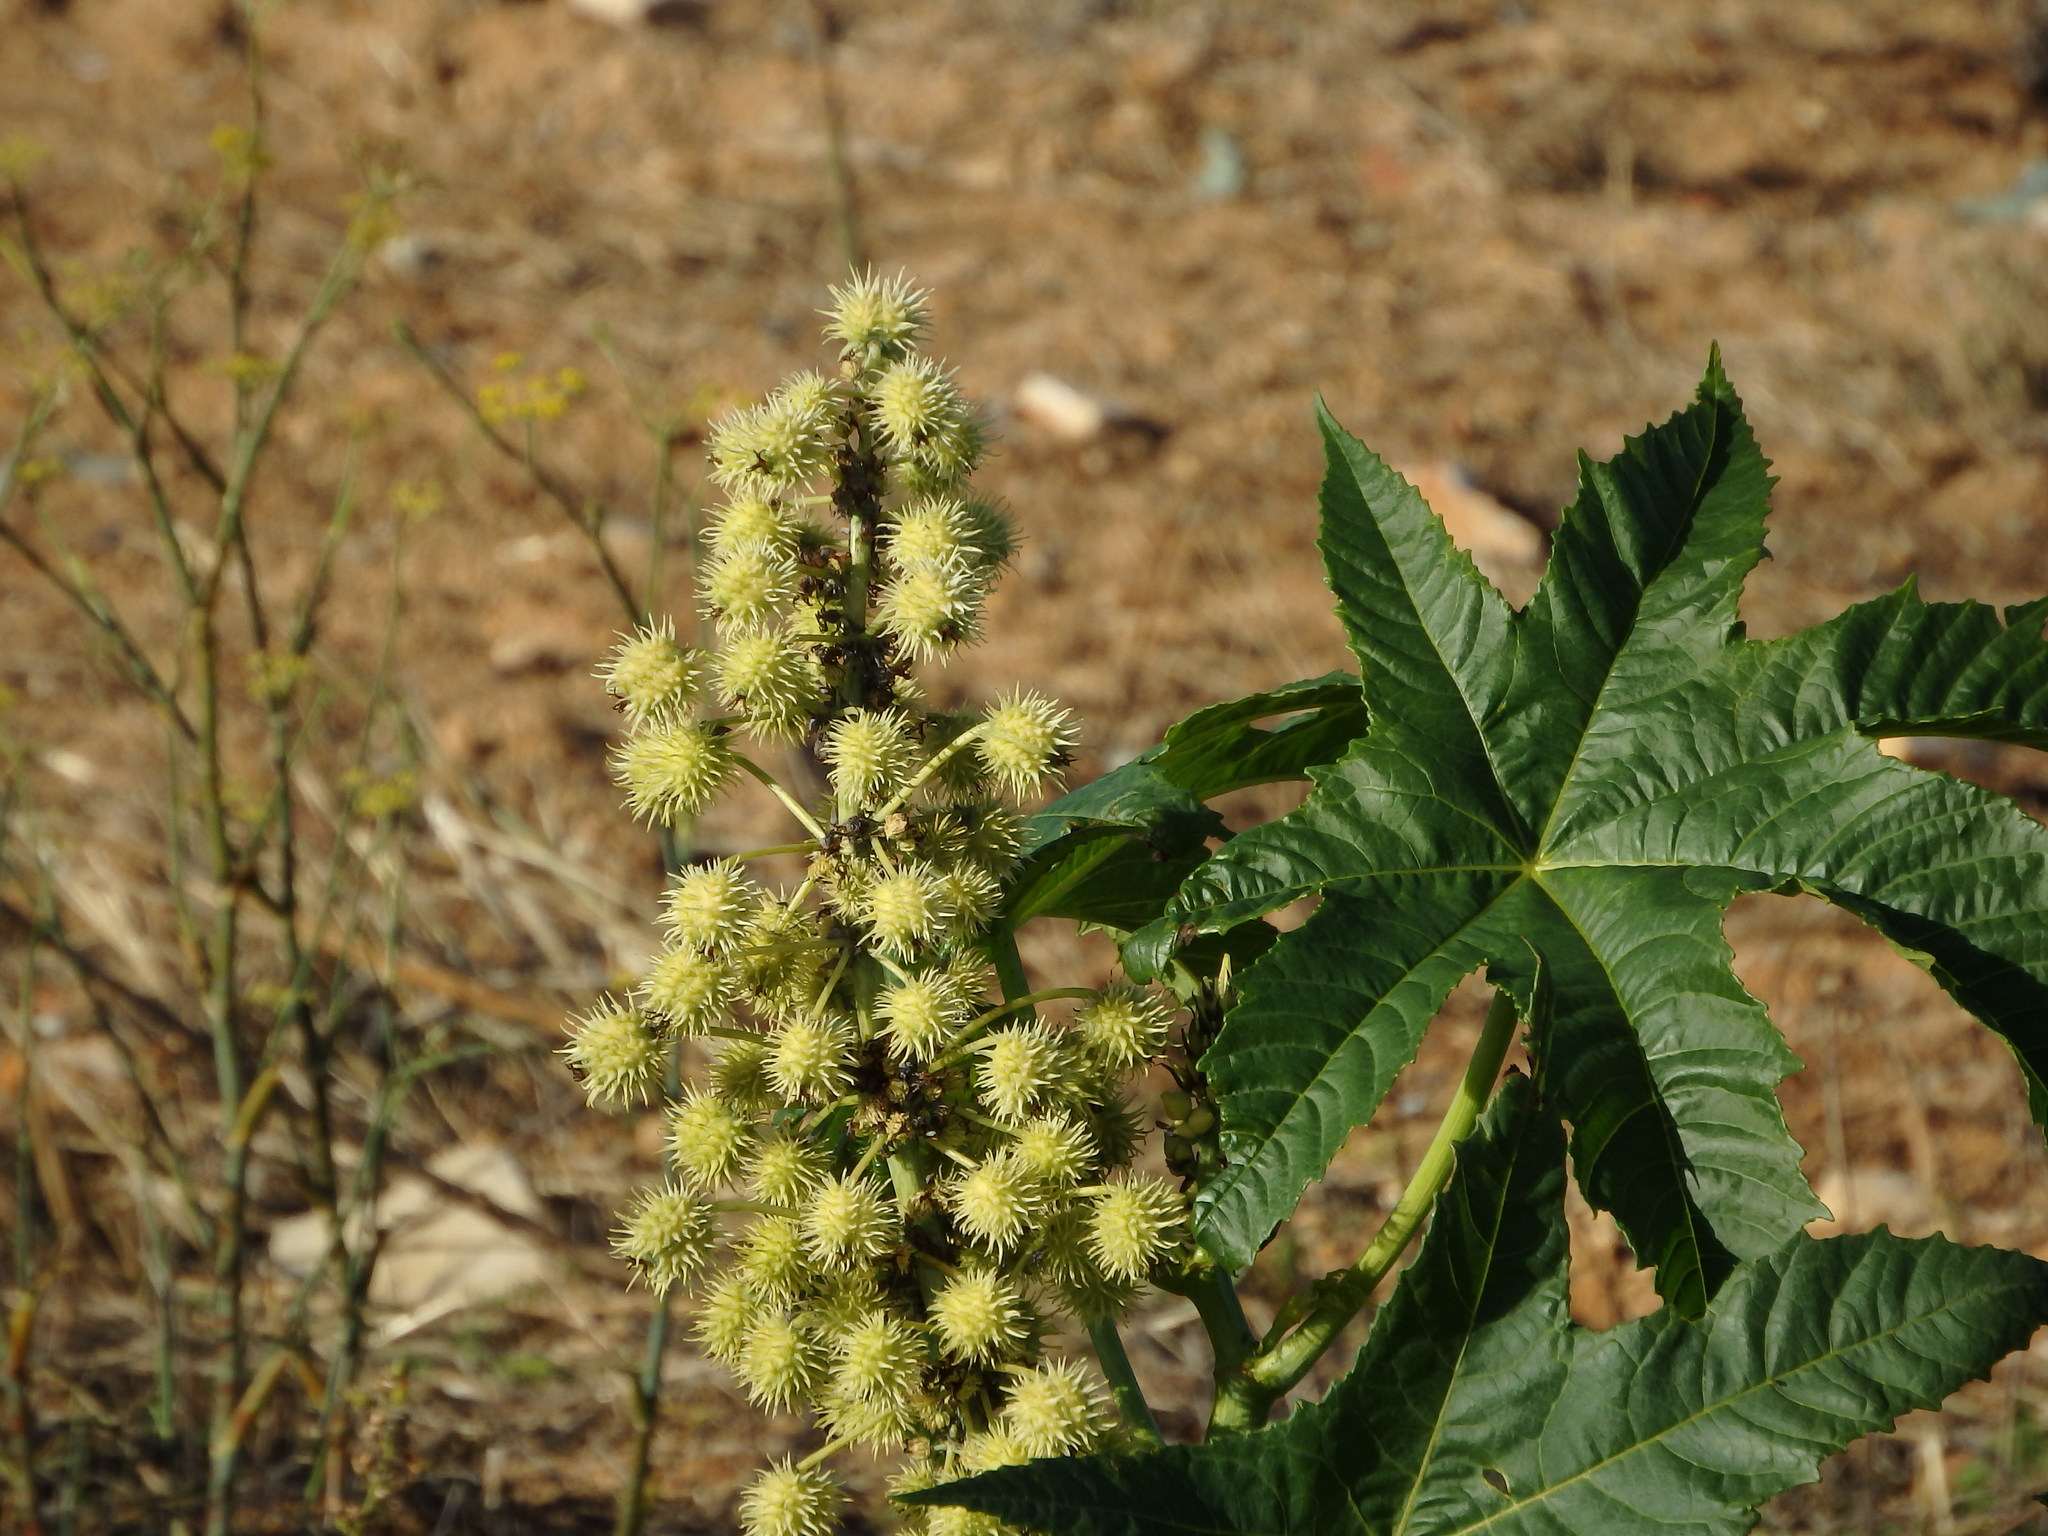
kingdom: Plantae
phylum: Tracheophyta
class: Magnoliopsida
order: Malpighiales
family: Euphorbiaceae
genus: Ricinus
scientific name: Ricinus communis
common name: Castor-oil-plant
